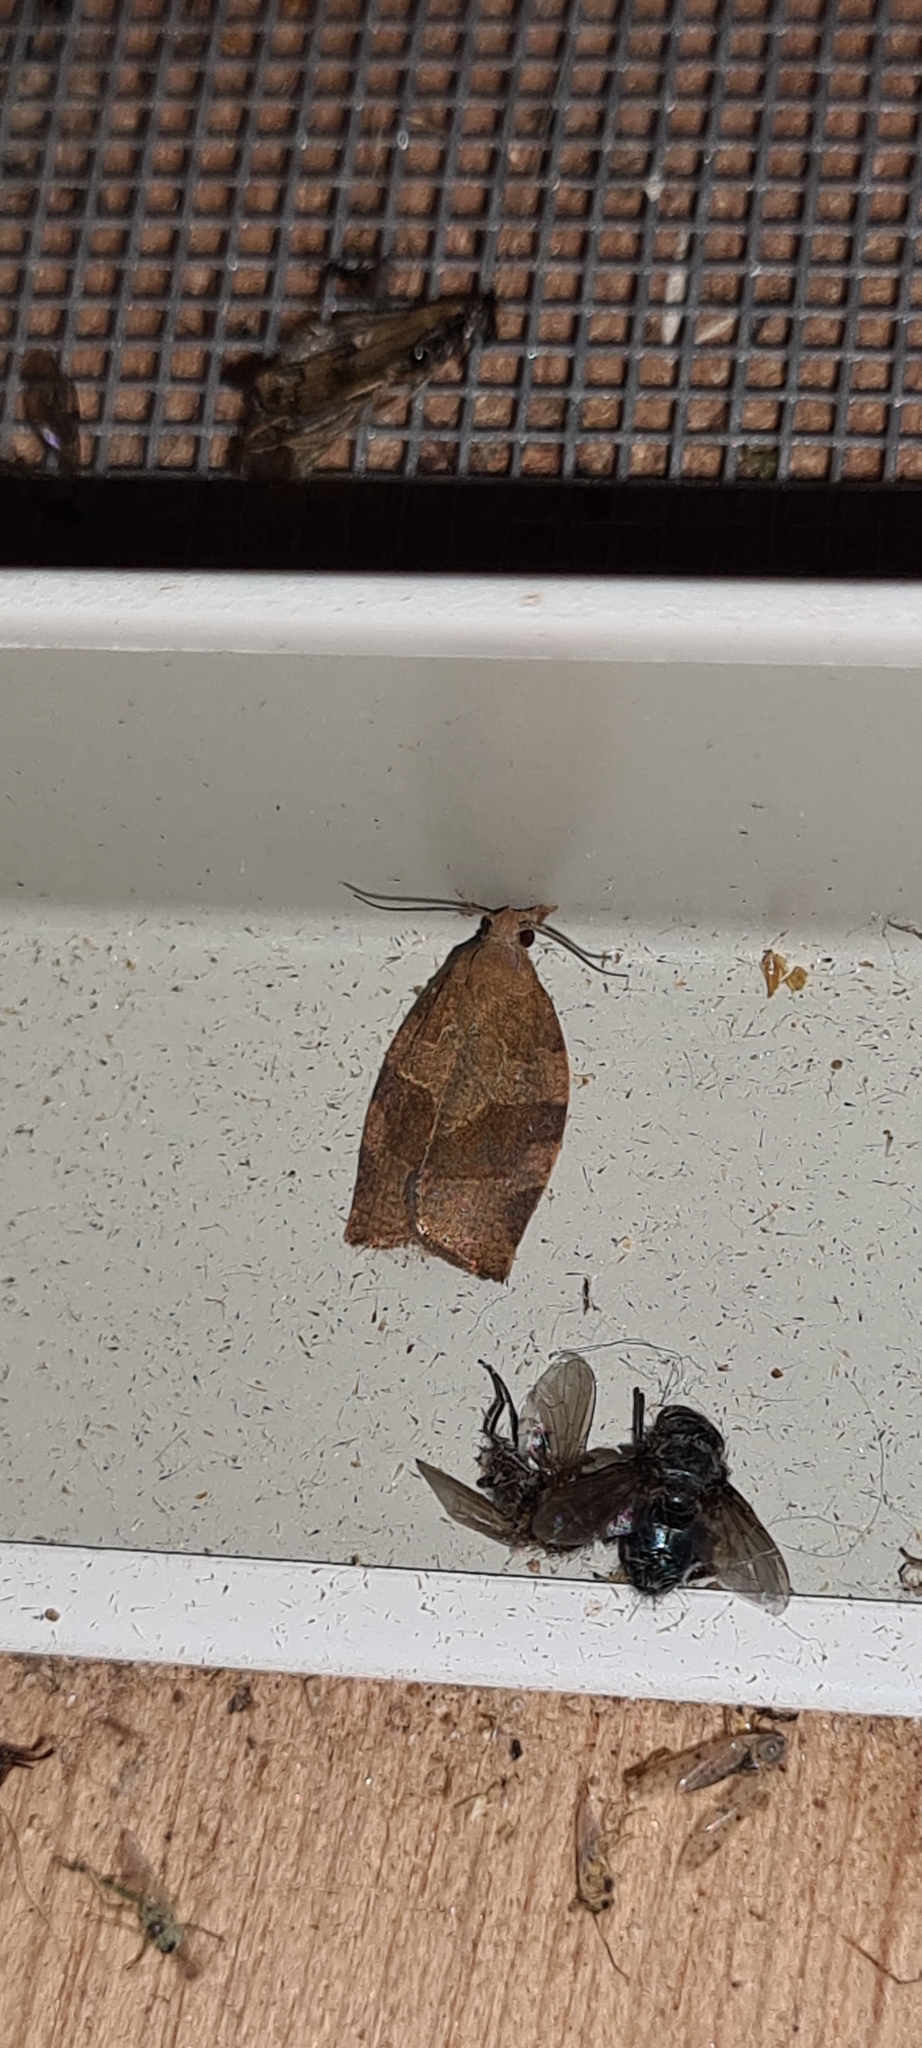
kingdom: Animalia
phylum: Arthropoda
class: Insecta
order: Lepidoptera
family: Tortricidae
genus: Pandemis
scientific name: Pandemis heparana
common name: Dark fruit-tree tortrix
